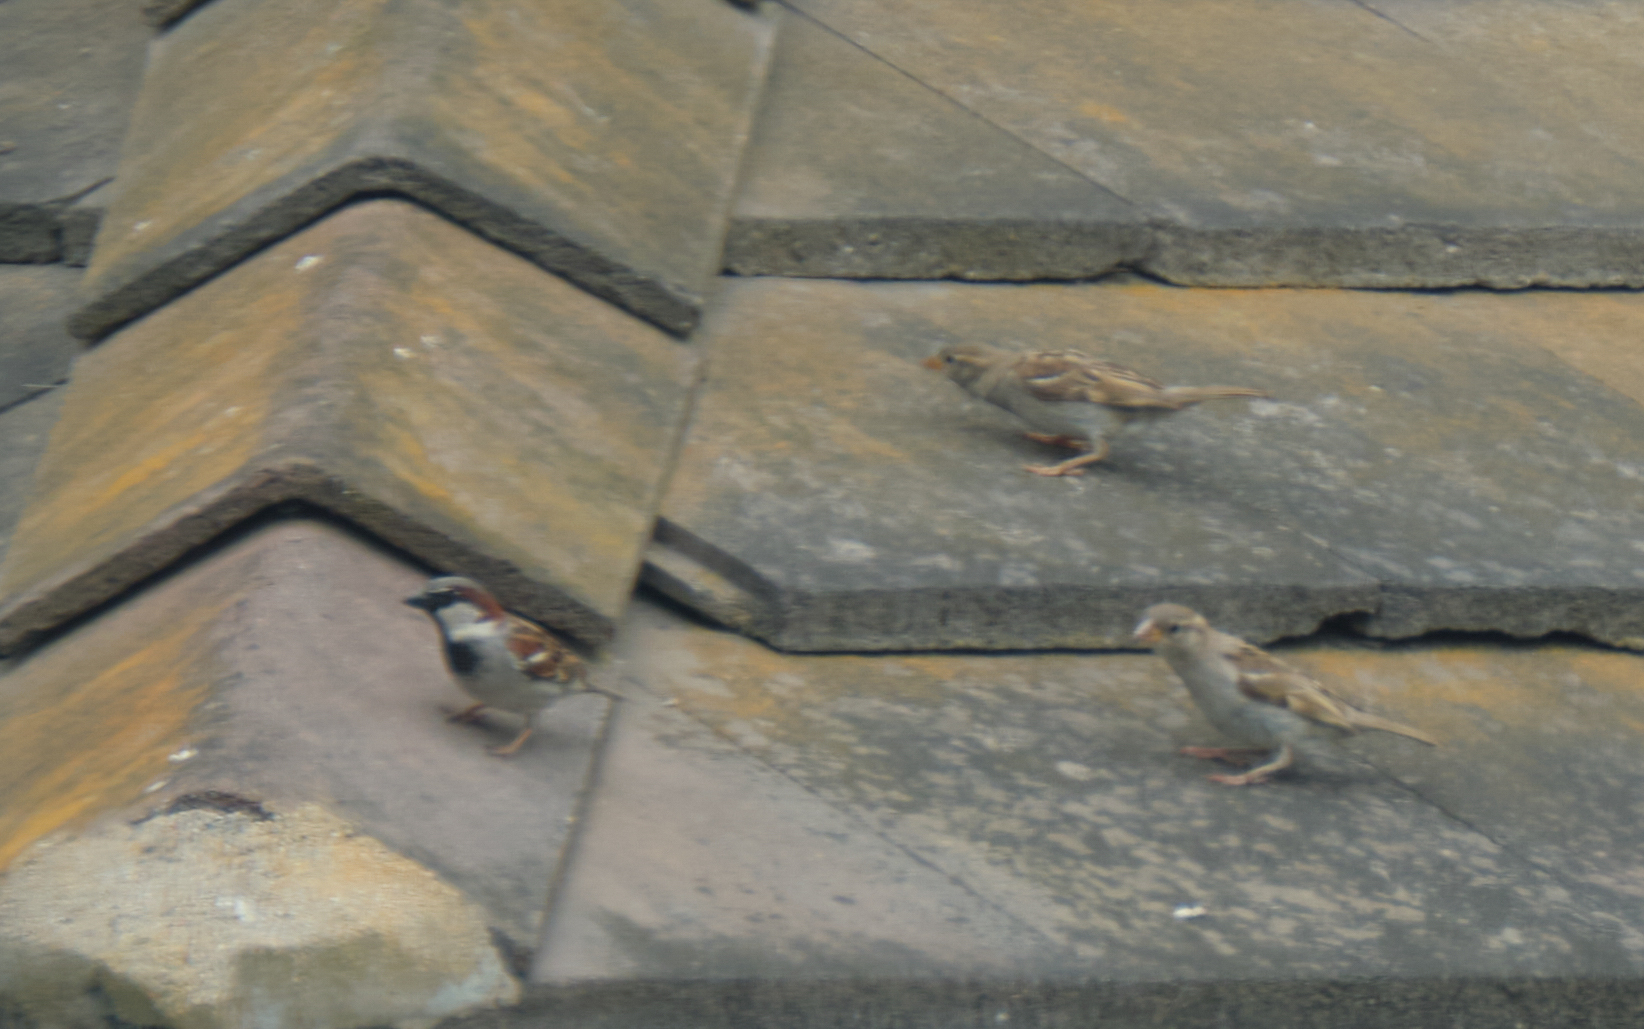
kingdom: Animalia
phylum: Chordata
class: Aves
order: Passeriformes
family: Passeridae
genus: Passer
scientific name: Passer domesticus
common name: House sparrow
